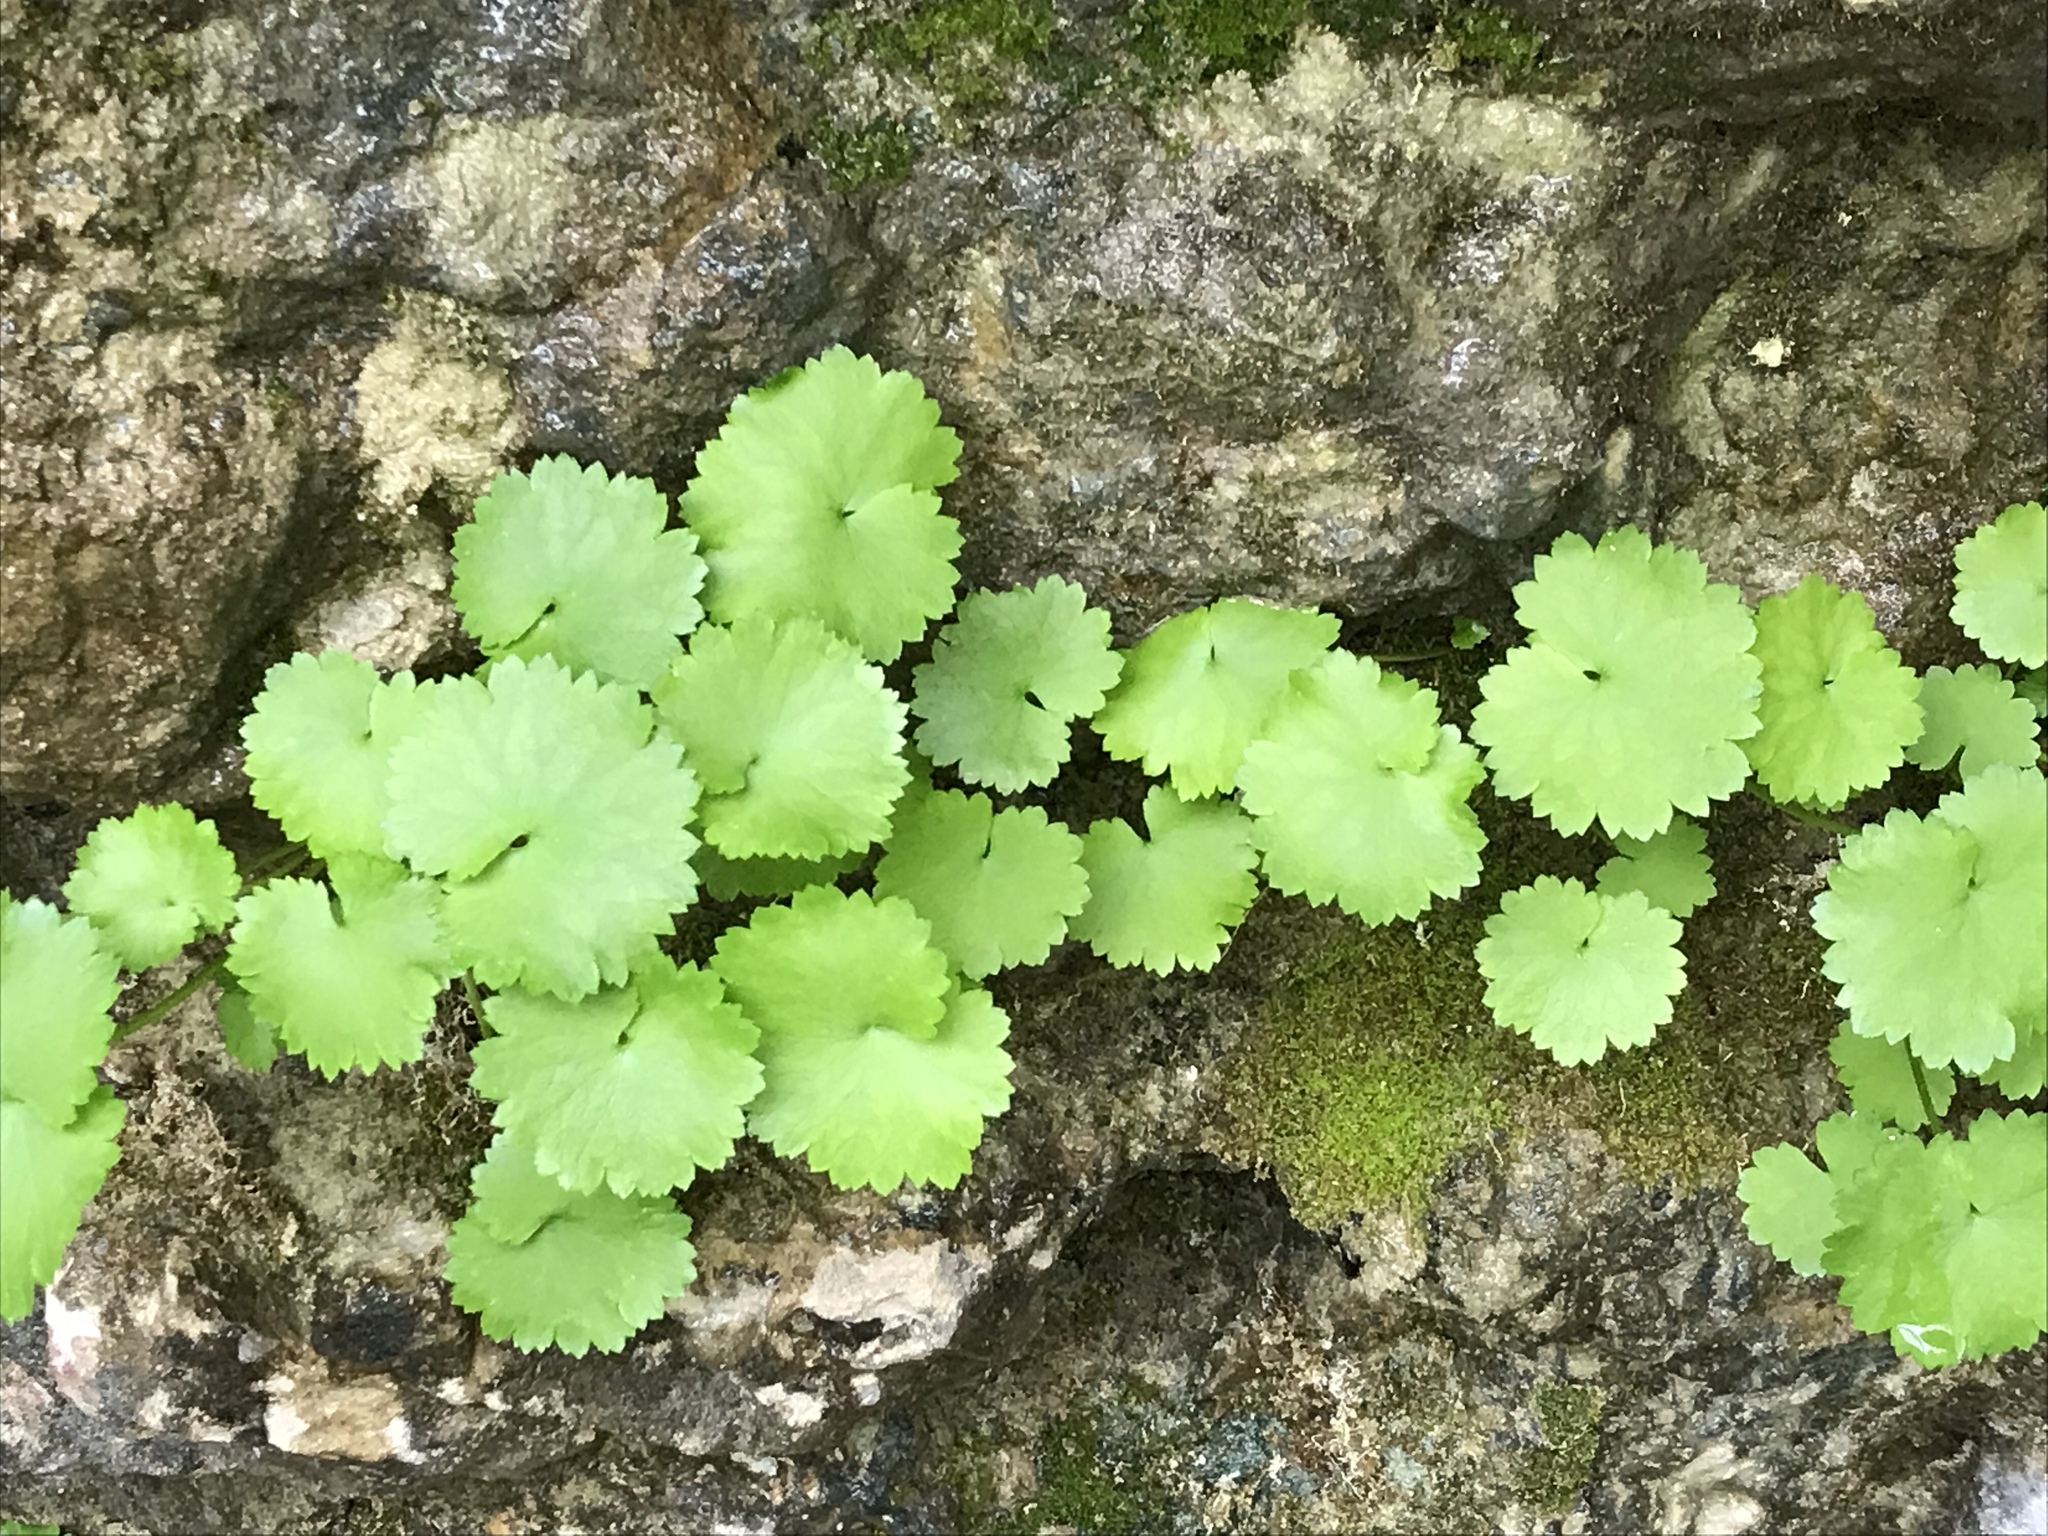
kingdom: Plantae
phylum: Tracheophyta
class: Magnoliopsida
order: Saxifragales
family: Saxifragaceae
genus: Sullivantia
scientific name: Sullivantia sullivantii
